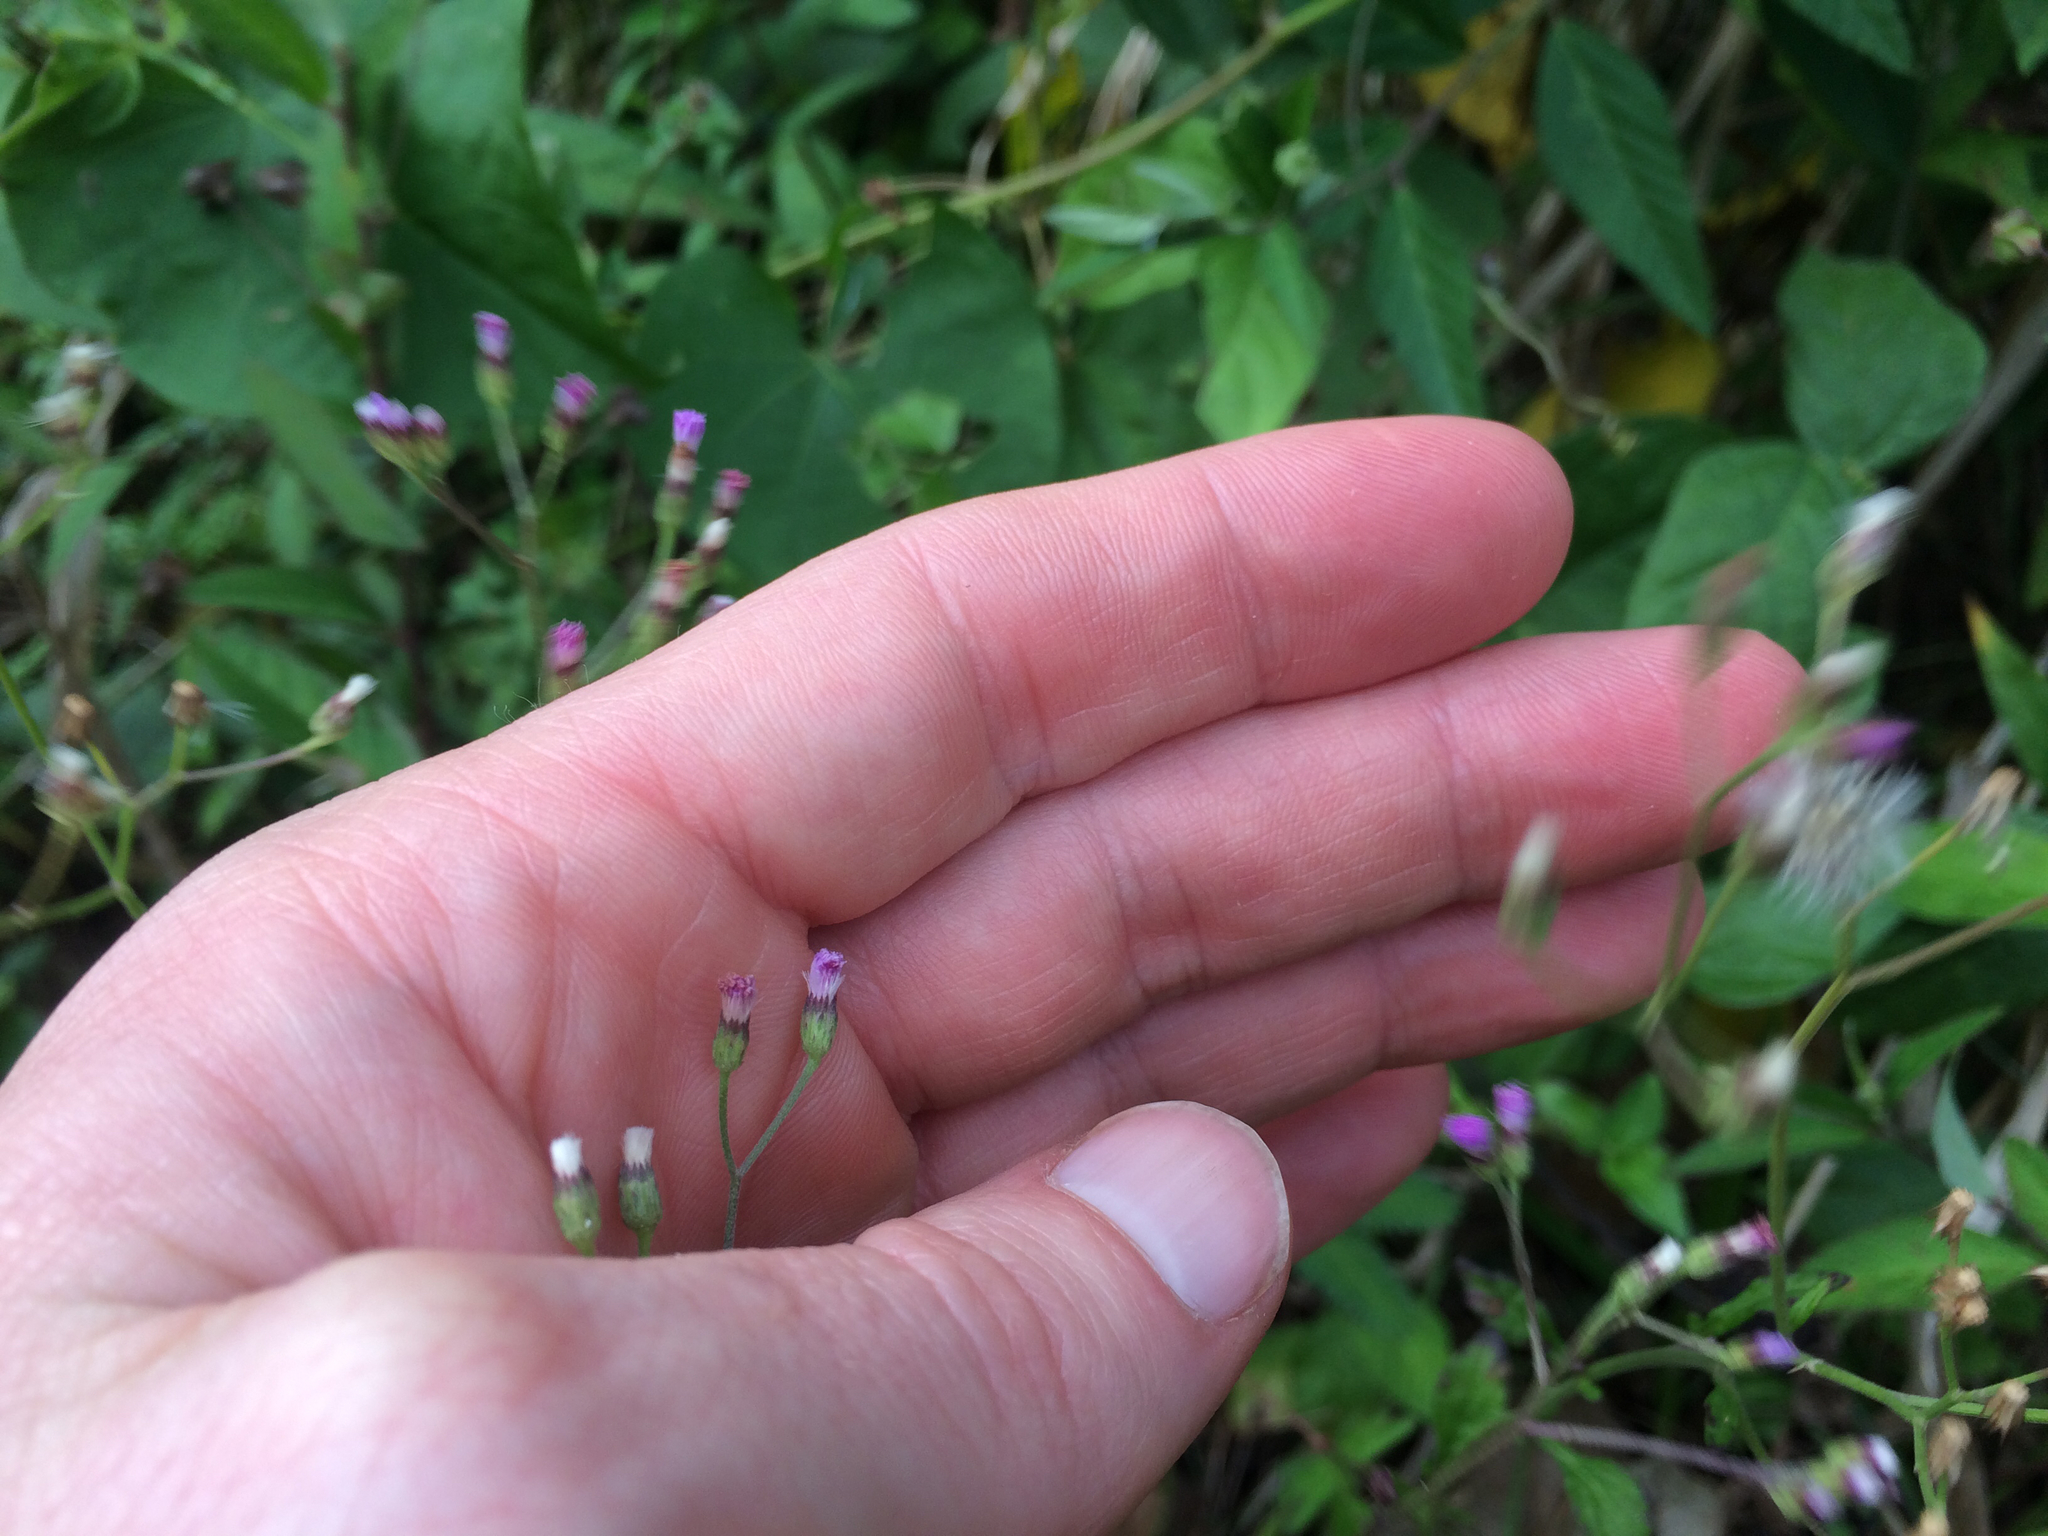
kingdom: Plantae
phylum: Tracheophyta
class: Magnoliopsida
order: Asterales
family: Asteraceae
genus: Cyanthillium
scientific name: Cyanthillium cinereum
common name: Little ironweed
